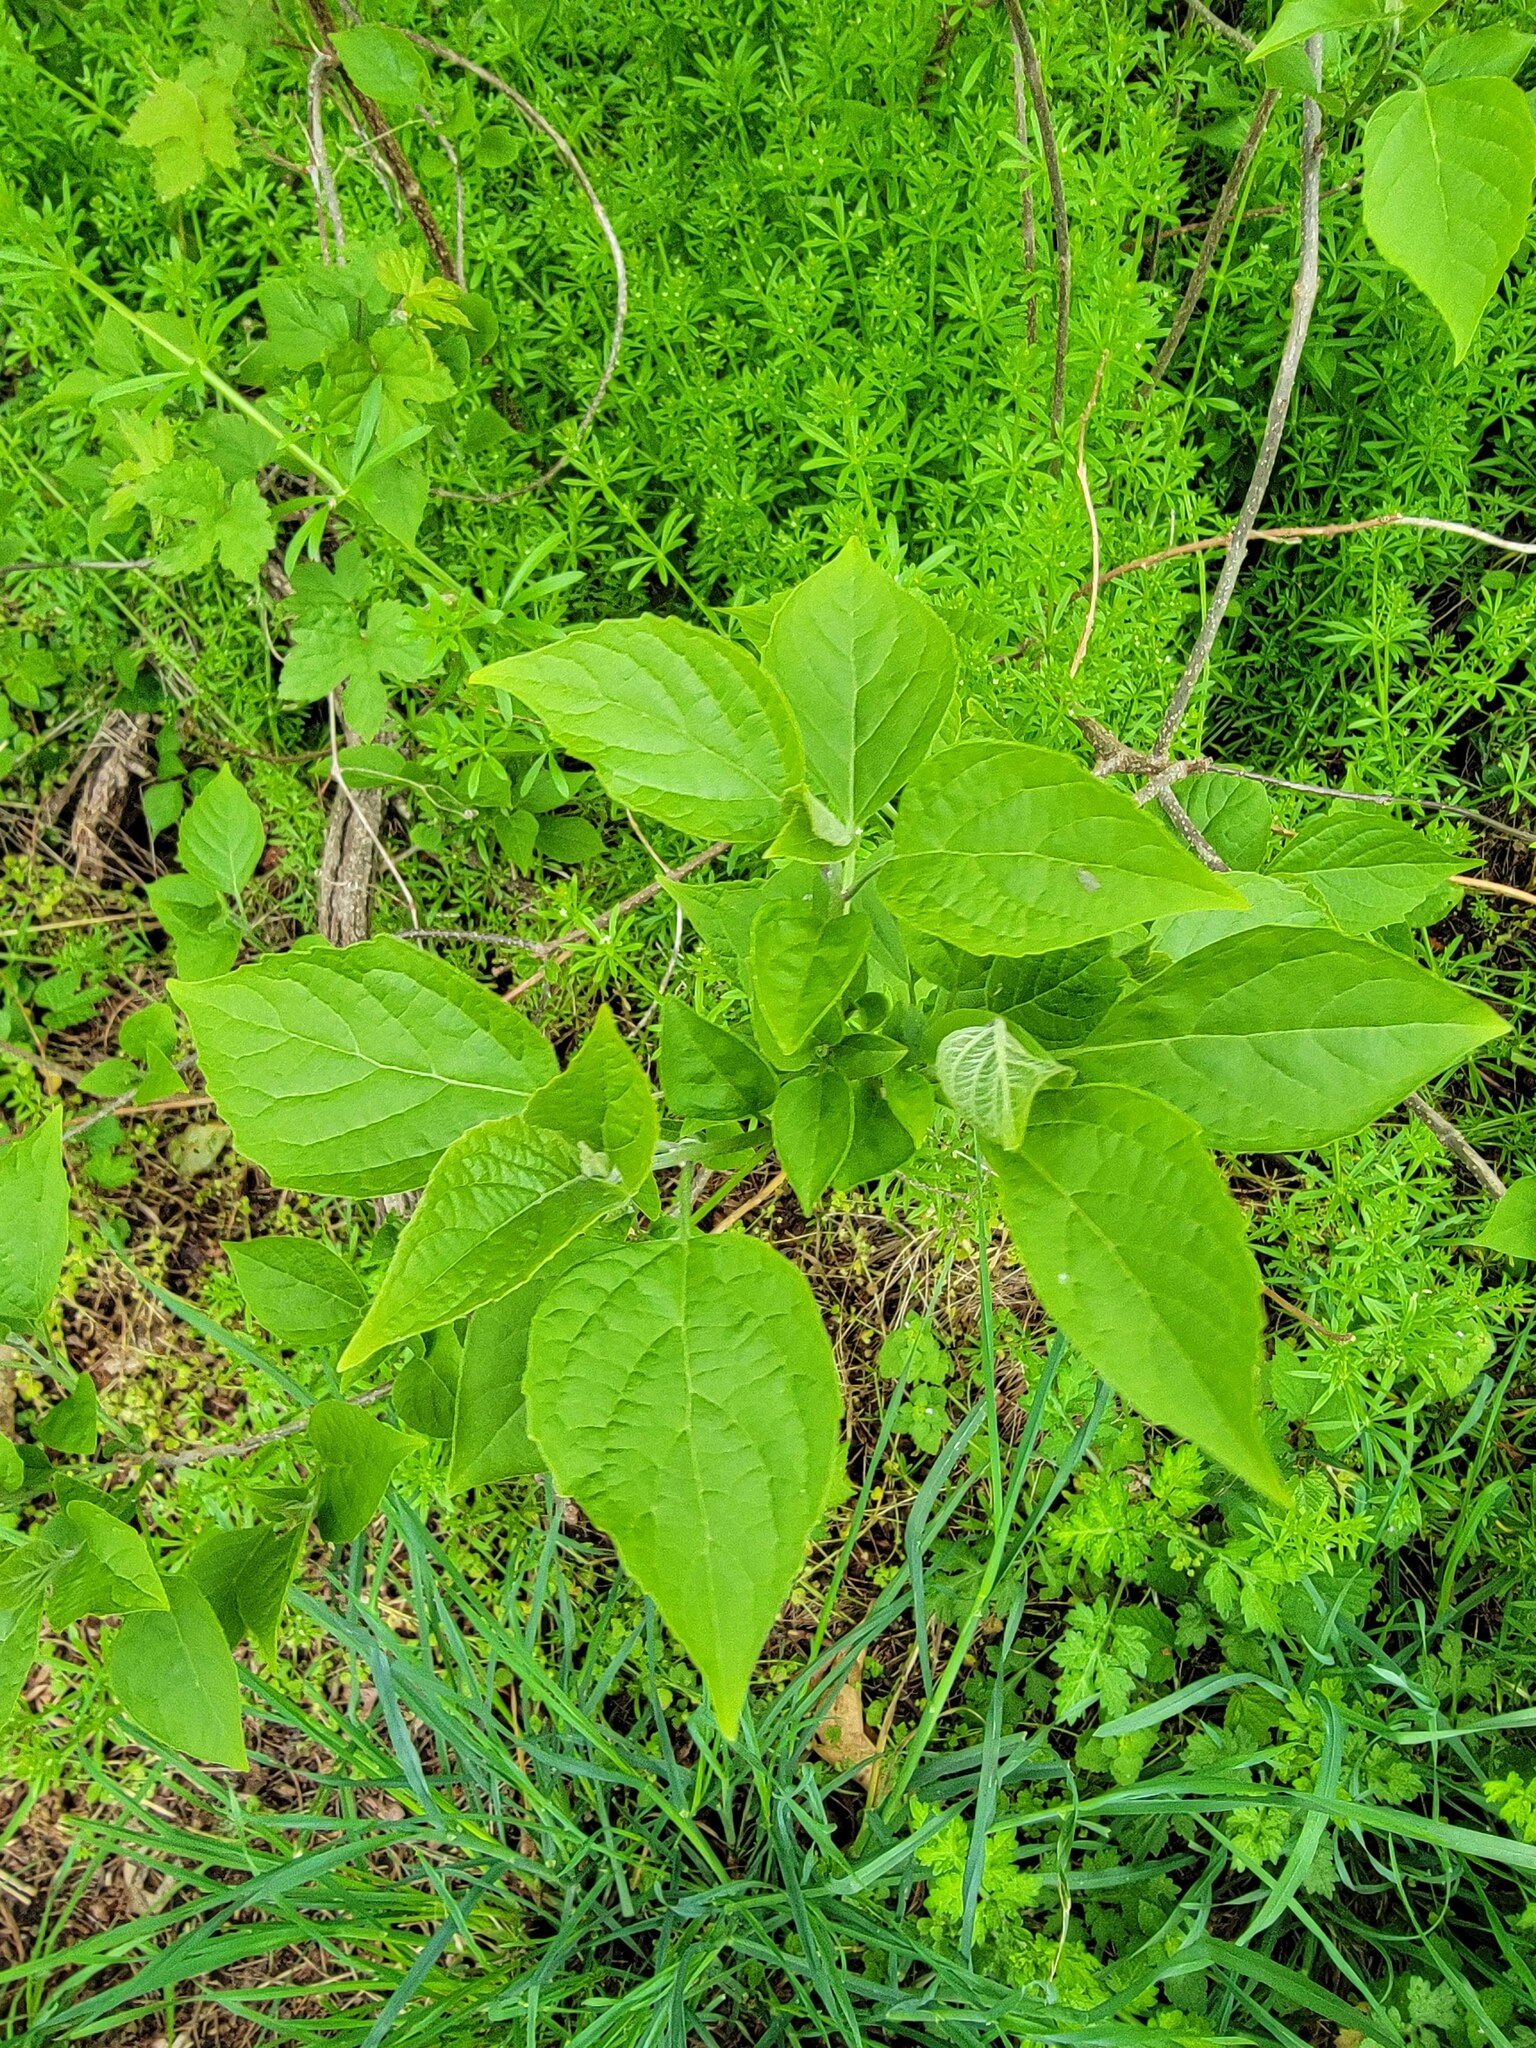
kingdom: Plantae
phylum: Tracheophyta
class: Magnoliopsida
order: Lamiales
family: Paulowniaceae
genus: Paulownia
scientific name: Paulownia tomentosa
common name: Foxglove-tree
